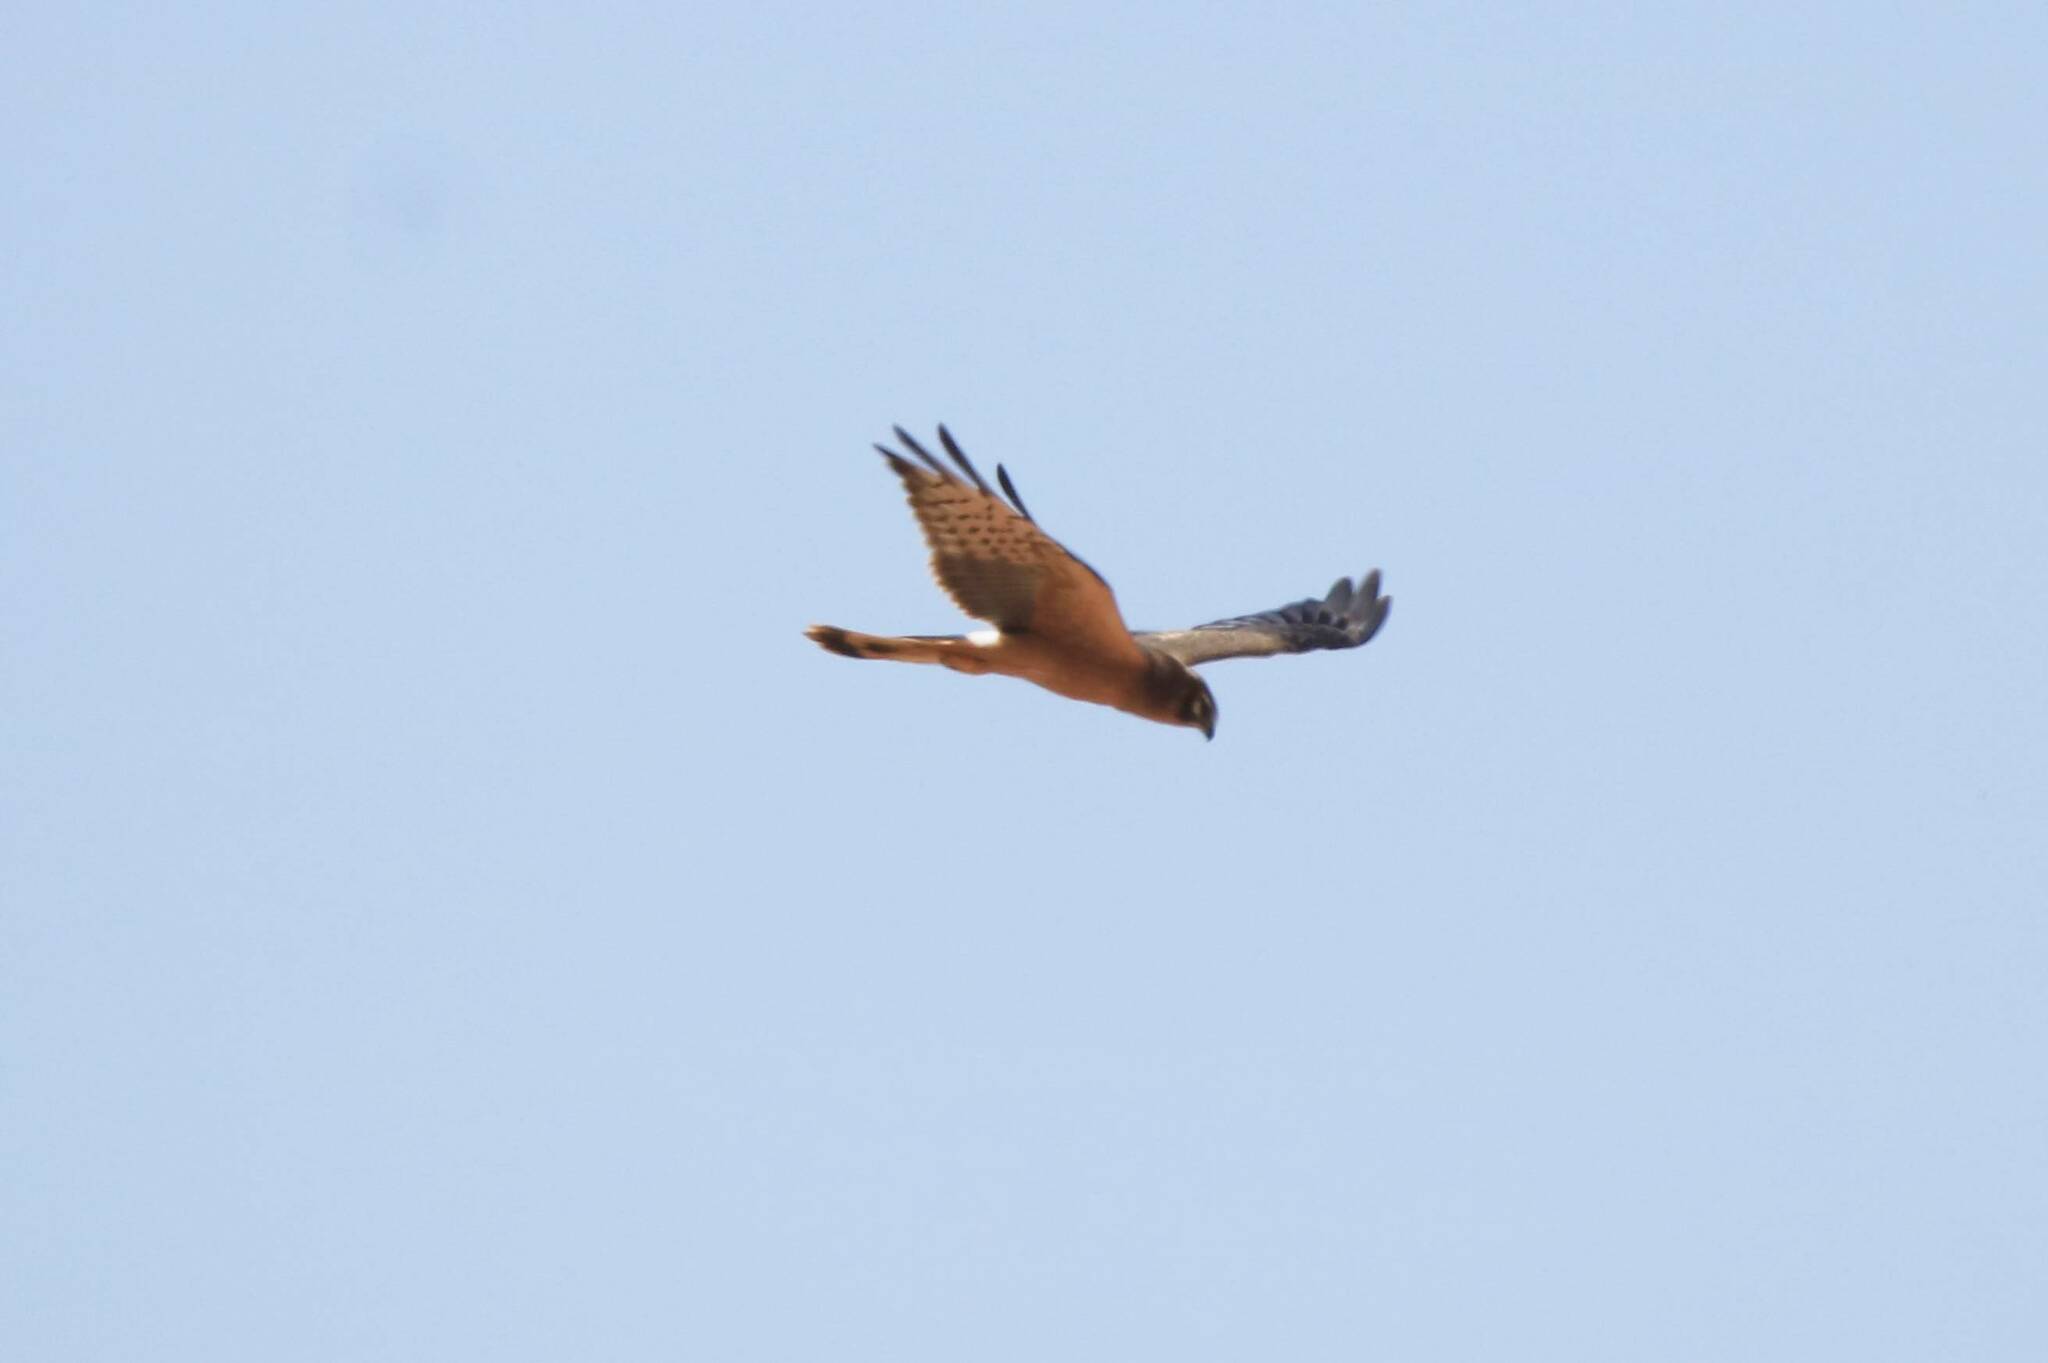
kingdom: Animalia
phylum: Chordata
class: Aves
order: Accipitriformes
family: Accipitridae
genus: Circus
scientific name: Circus pygargus
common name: Montagu's harrier
